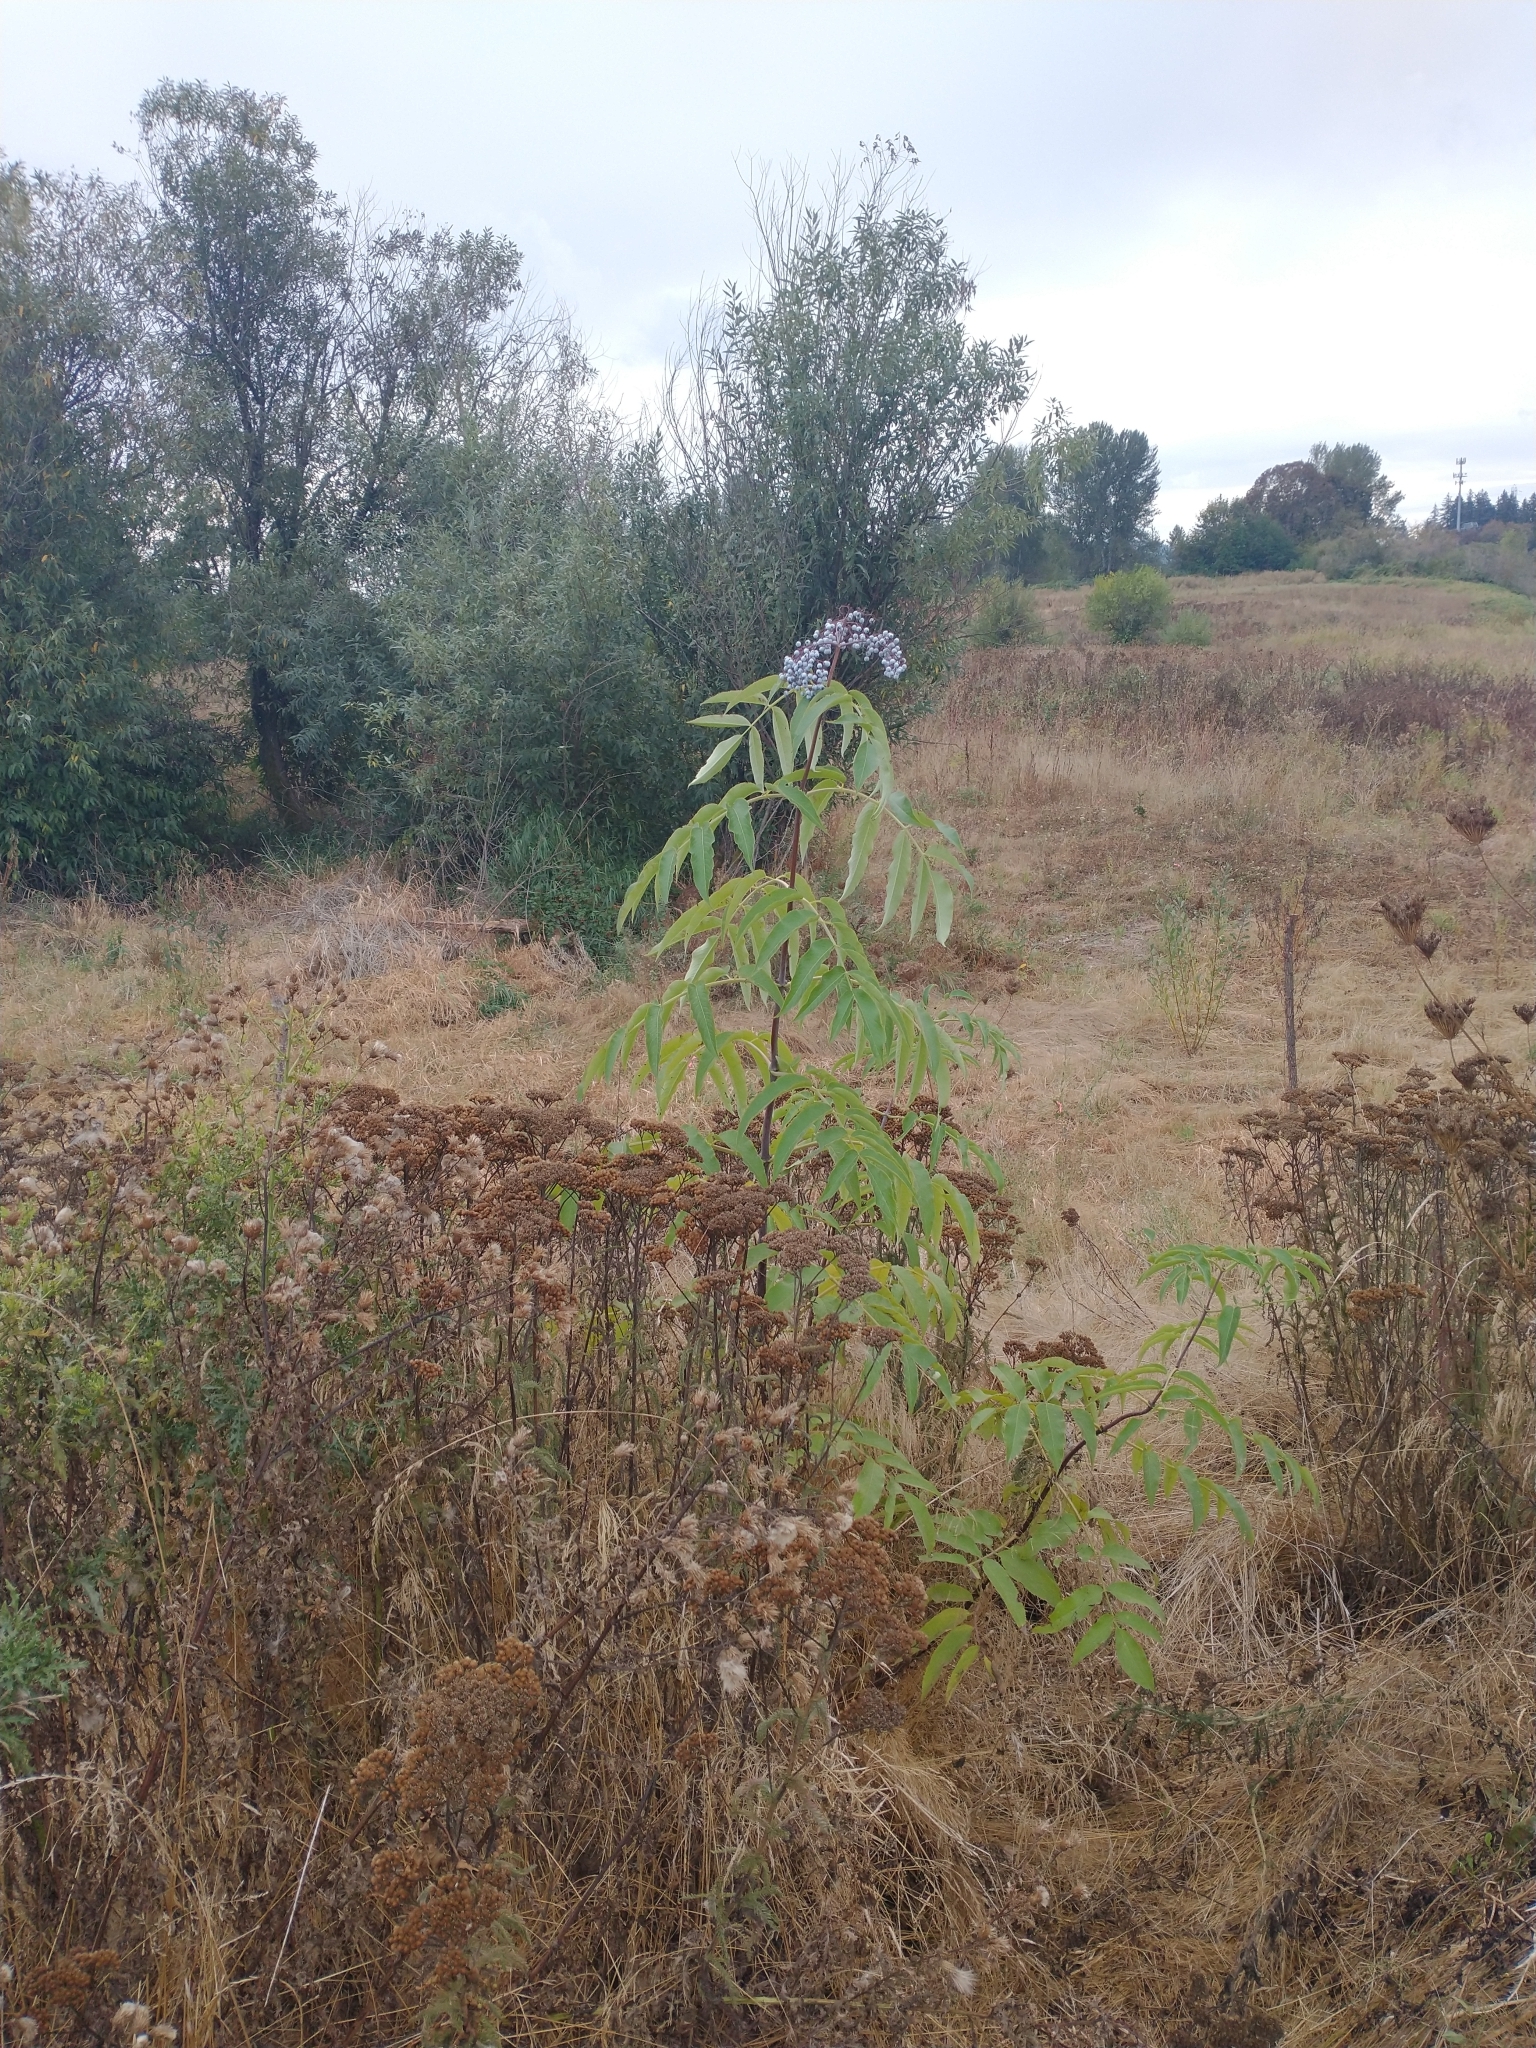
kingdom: Plantae
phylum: Tracheophyta
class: Magnoliopsida
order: Dipsacales
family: Viburnaceae
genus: Sambucus
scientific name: Sambucus cerulea
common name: Blue elder
